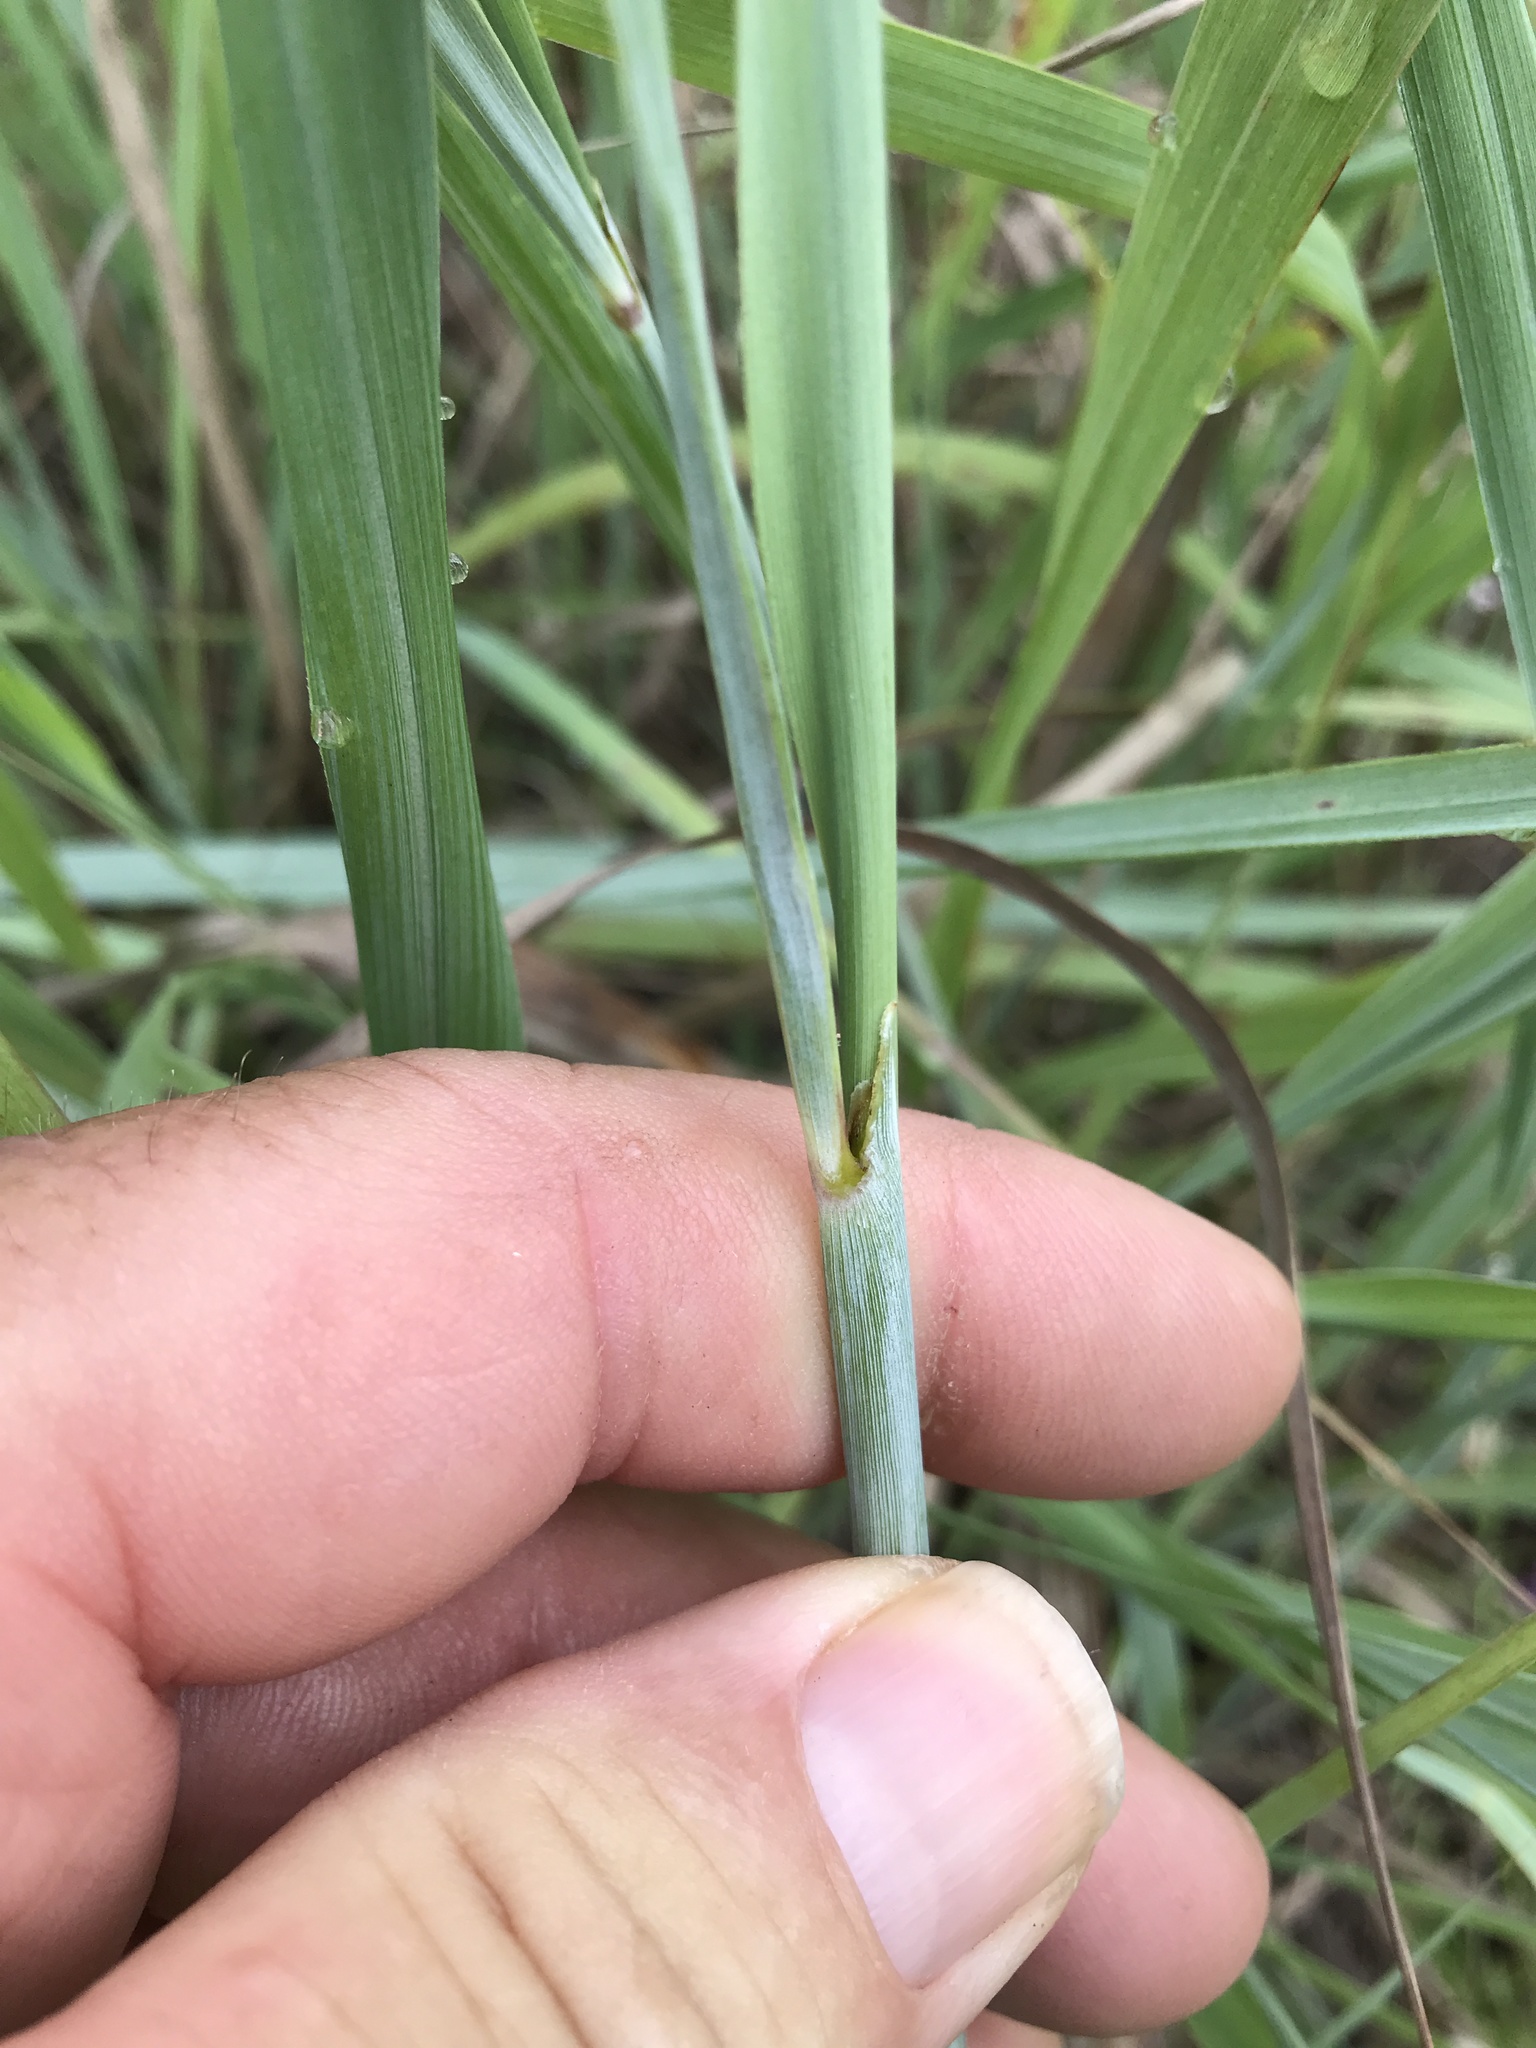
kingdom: Plantae
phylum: Tracheophyta
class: Liliopsida
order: Poales
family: Poaceae
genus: Sorghastrum
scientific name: Sorghastrum nutans
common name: Indian grass
